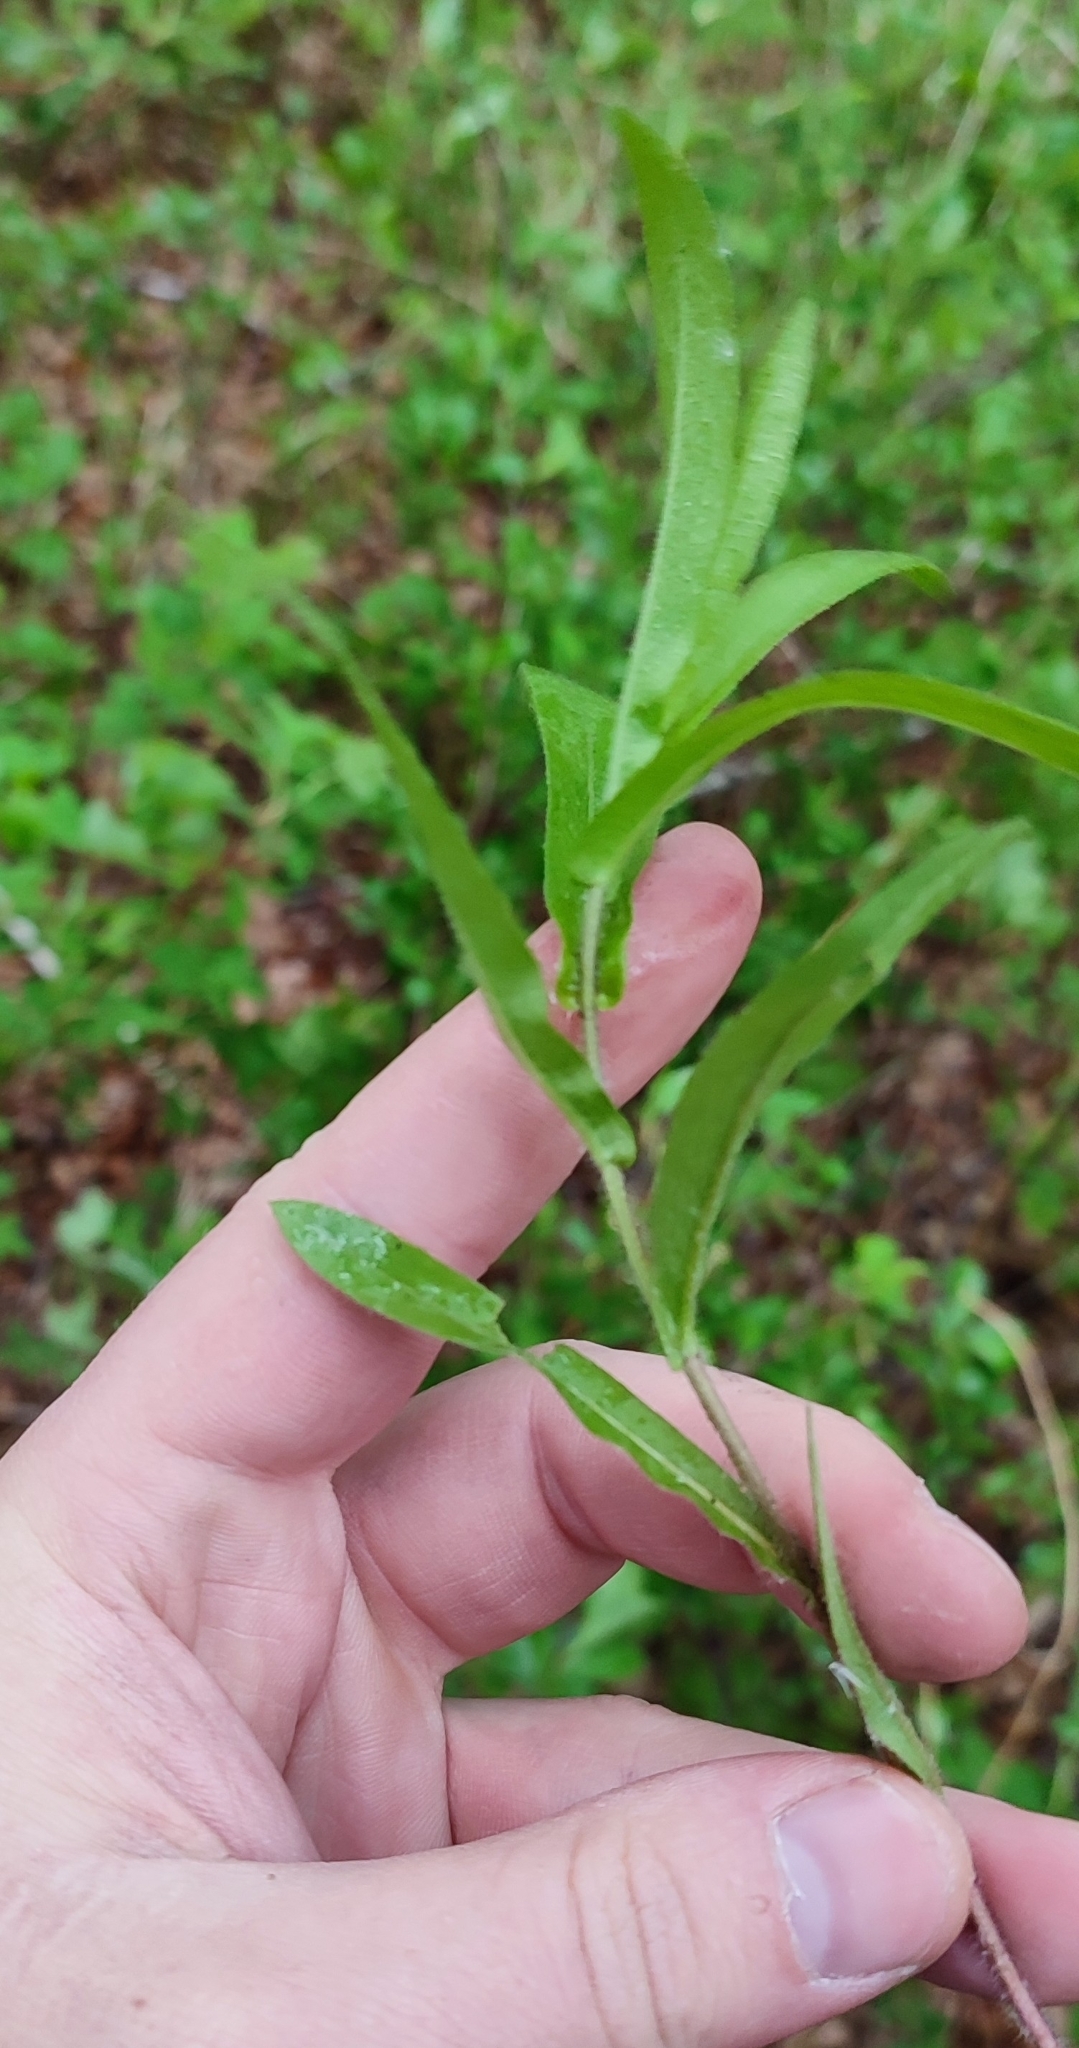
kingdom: Plantae
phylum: Tracheophyta
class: Magnoliopsida
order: Asterales
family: Asteraceae
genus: Pentanema
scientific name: Pentanema salicinum
